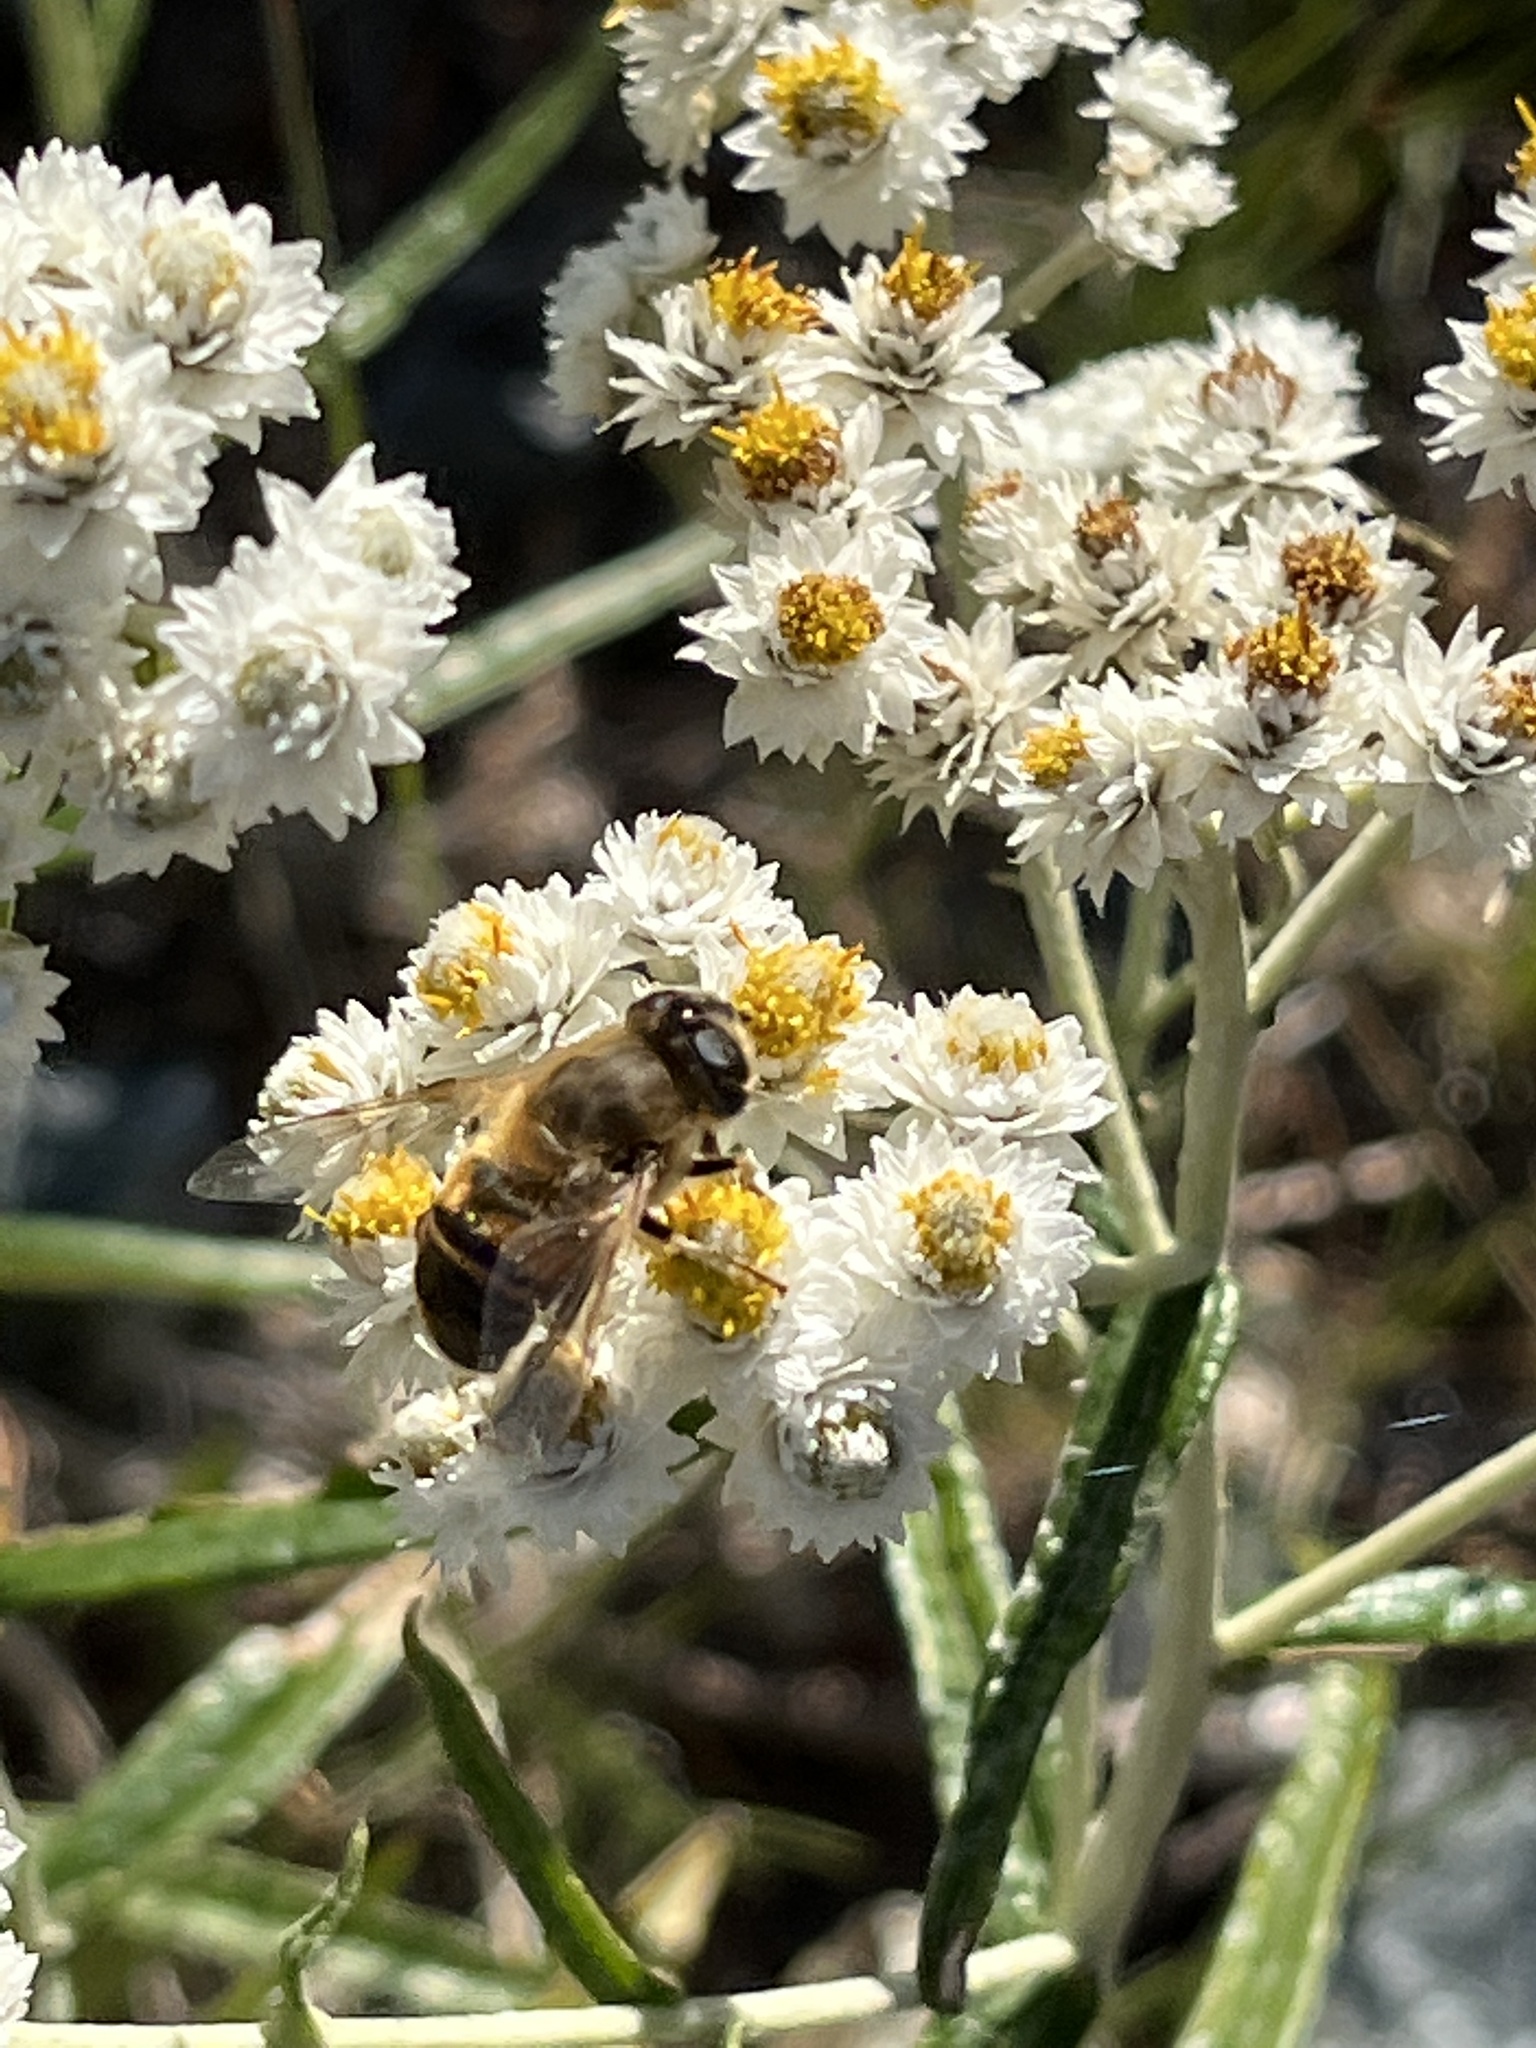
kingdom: Animalia
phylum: Arthropoda
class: Insecta
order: Diptera
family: Syrphidae
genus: Eristalis
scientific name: Eristalis tenax
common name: Drone fly
